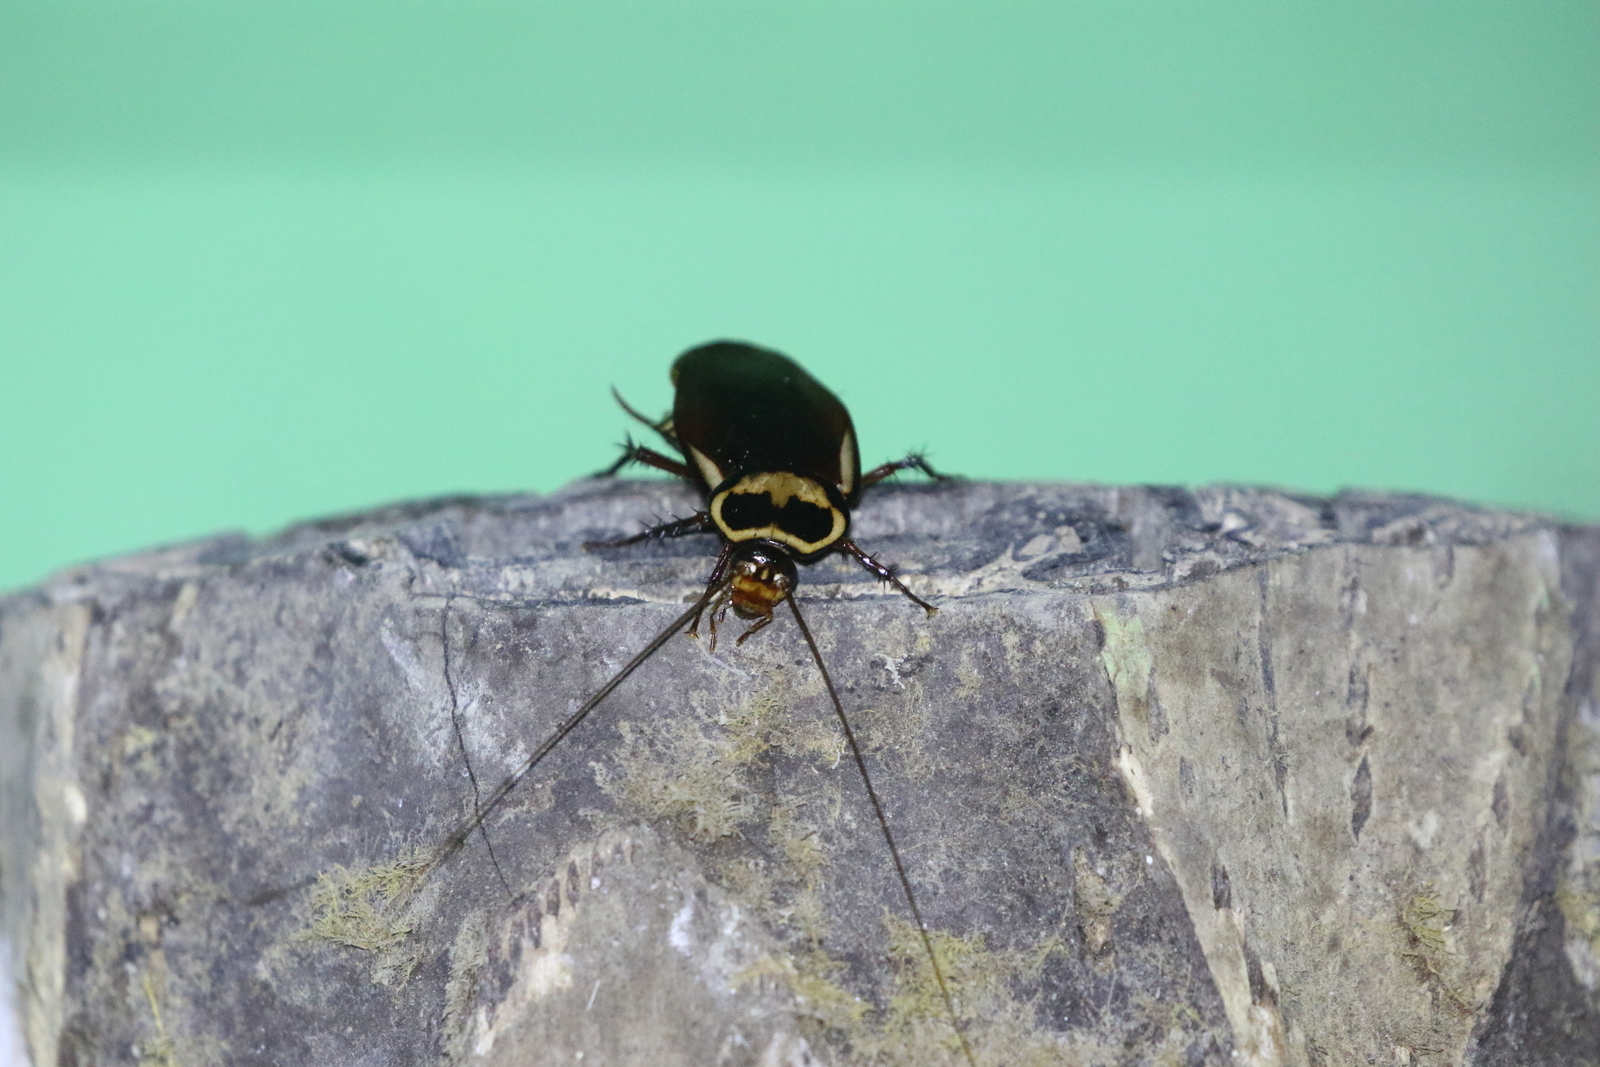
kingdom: Animalia
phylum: Arthropoda
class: Insecta
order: Blattodea
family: Blattidae
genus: Periplaneta
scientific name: Periplaneta australasiae
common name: Australian cockroach
